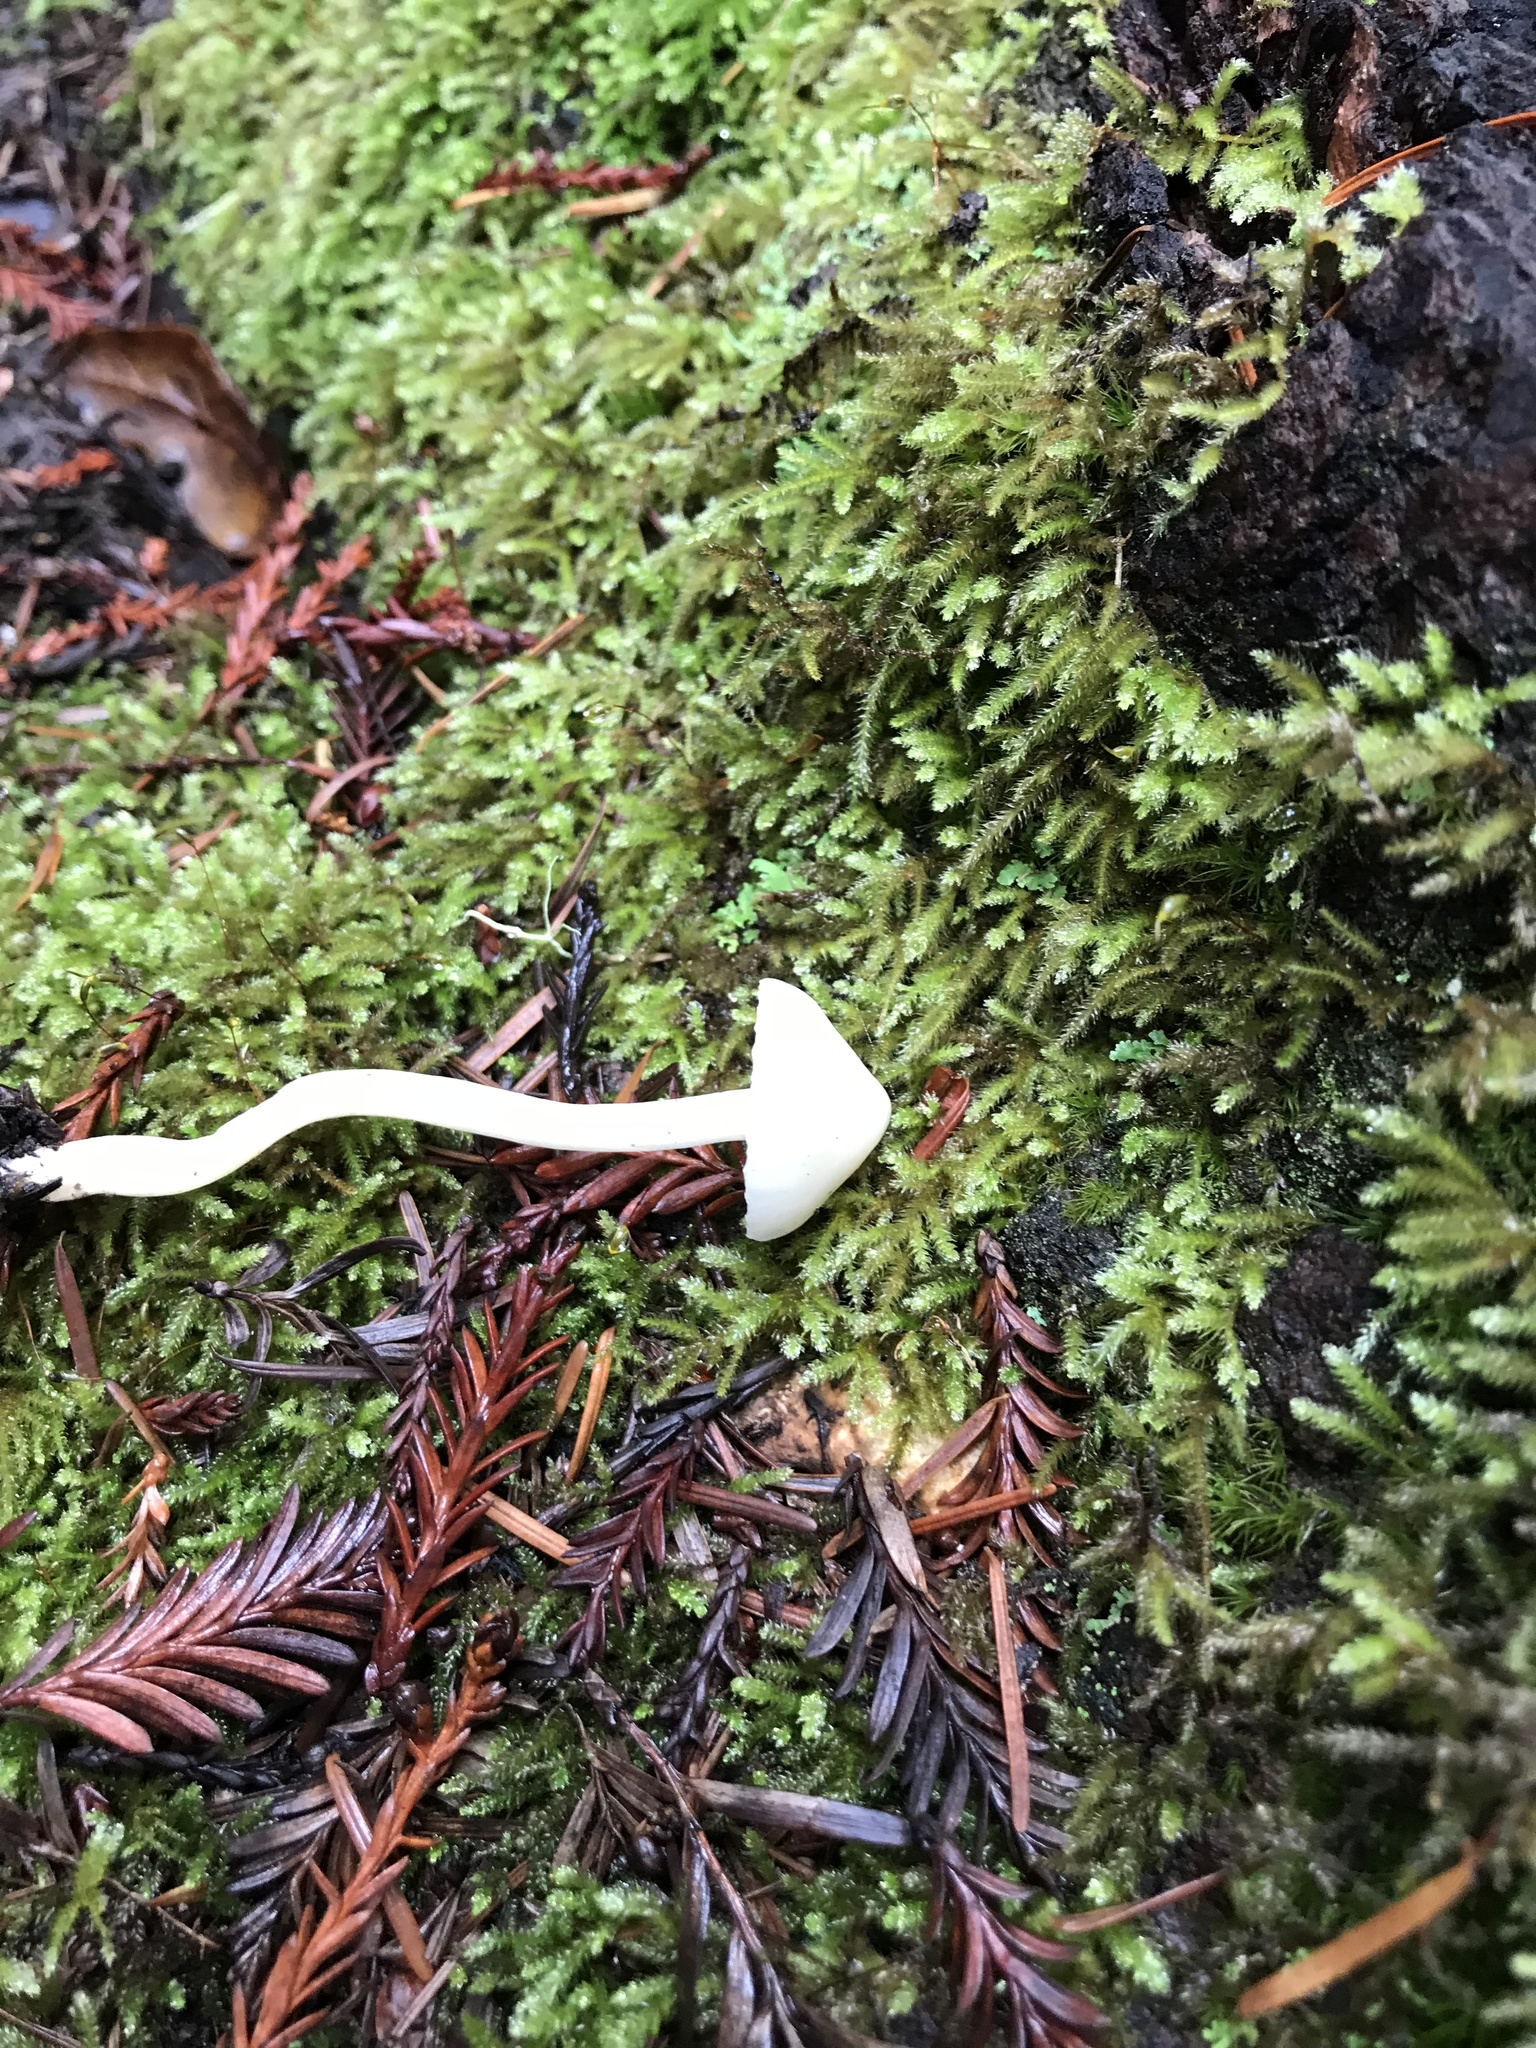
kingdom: Fungi
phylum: Basidiomycota
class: Agaricomycetes
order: Agaricales
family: Hygrophoraceae
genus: Cuphophyllus
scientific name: Cuphophyllus russocoriaceus
